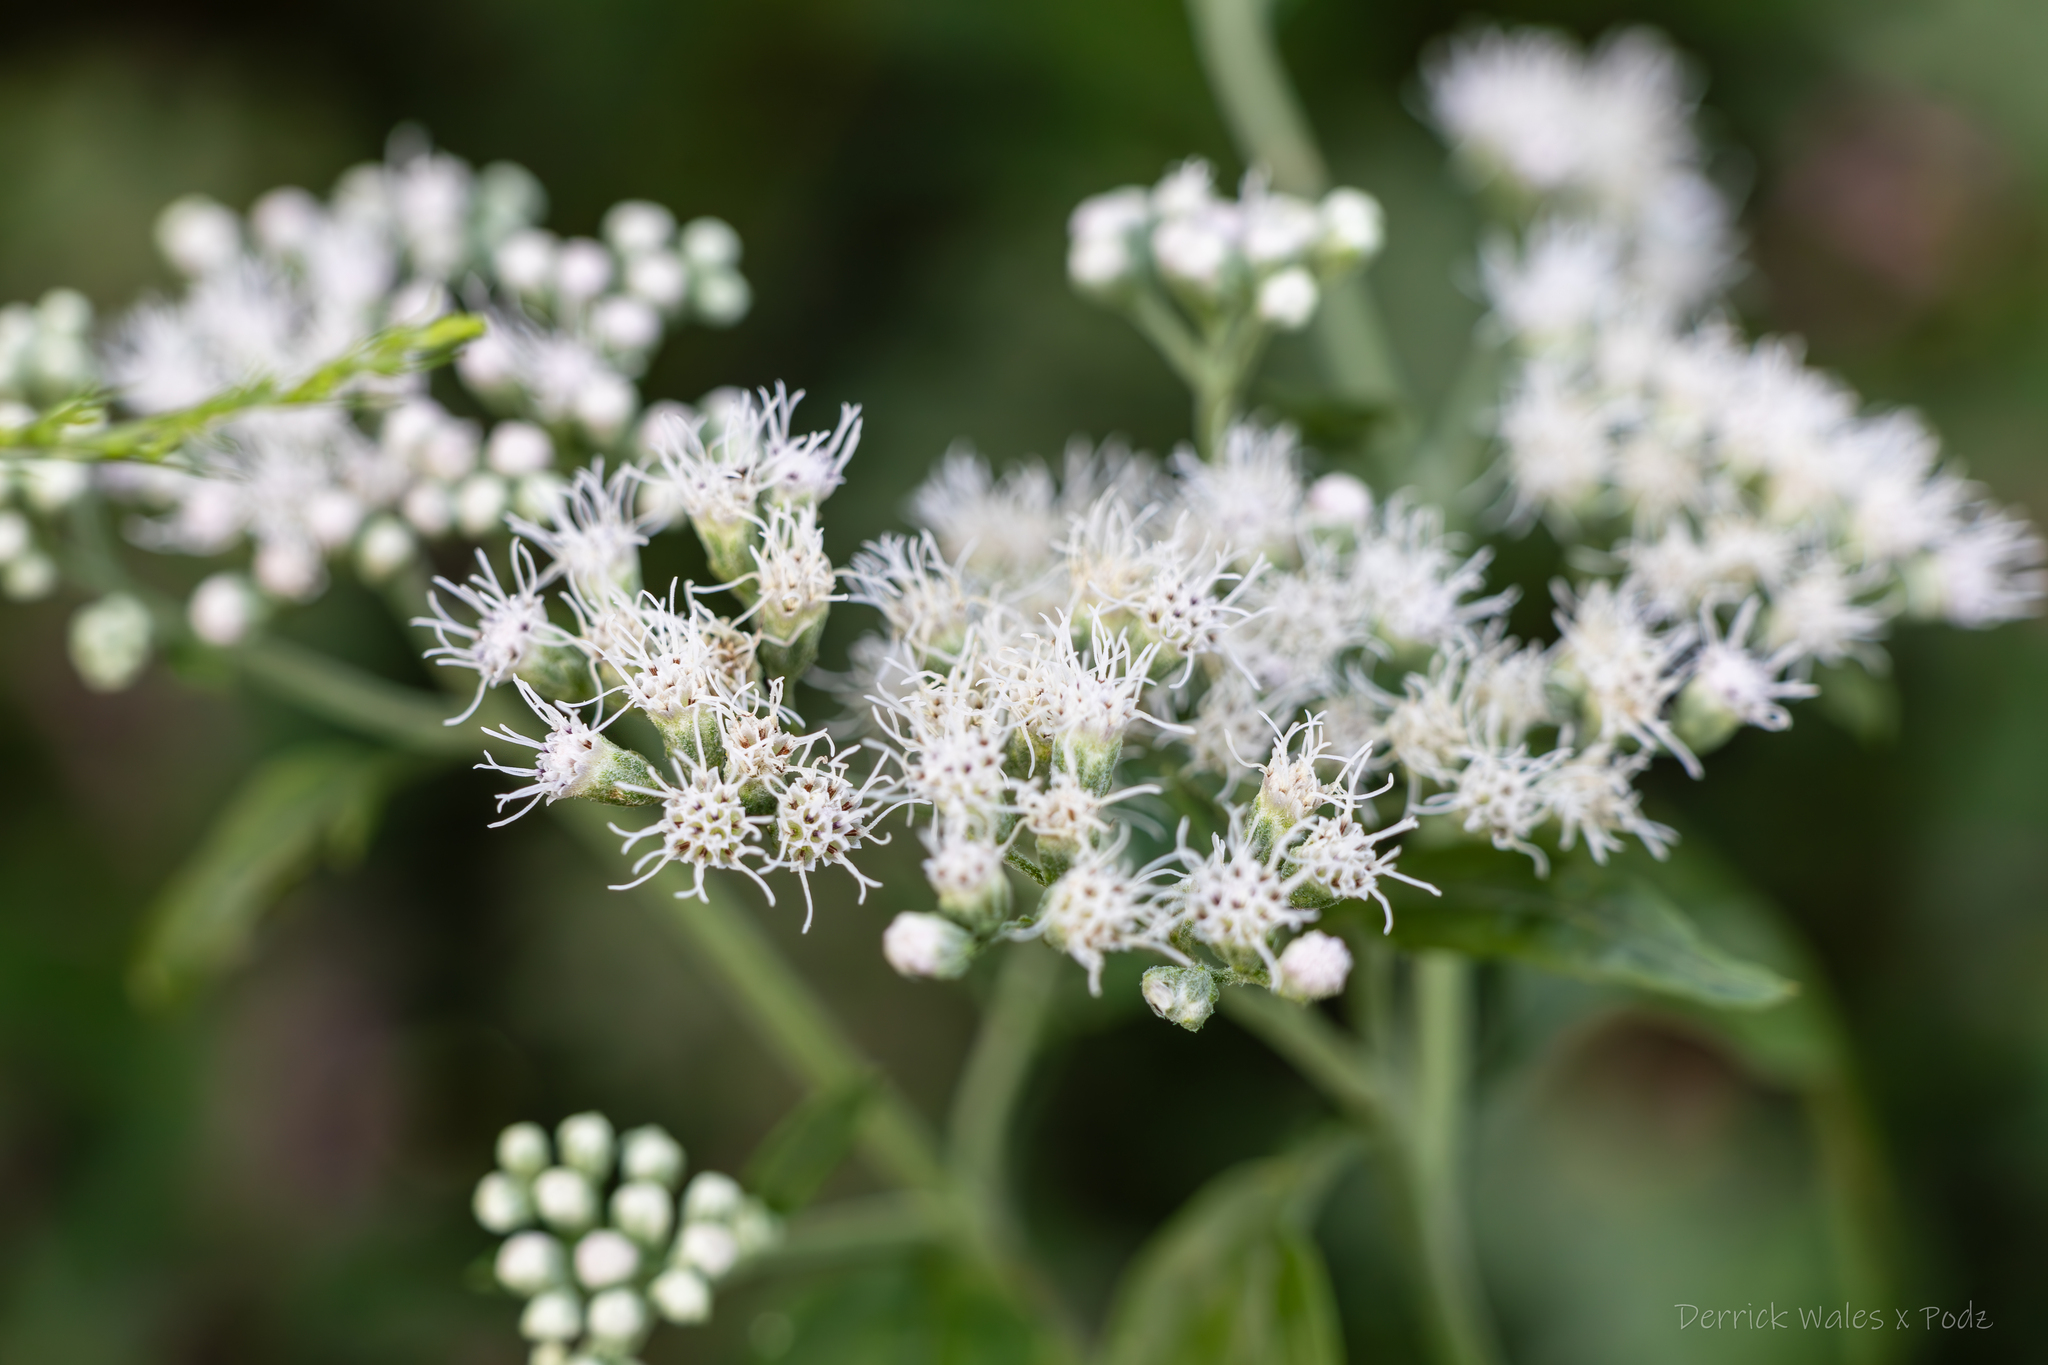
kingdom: Plantae
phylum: Tracheophyta
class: Magnoliopsida
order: Asterales
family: Asteraceae
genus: Eupatorium
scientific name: Eupatorium serotinum
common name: Late boneset
